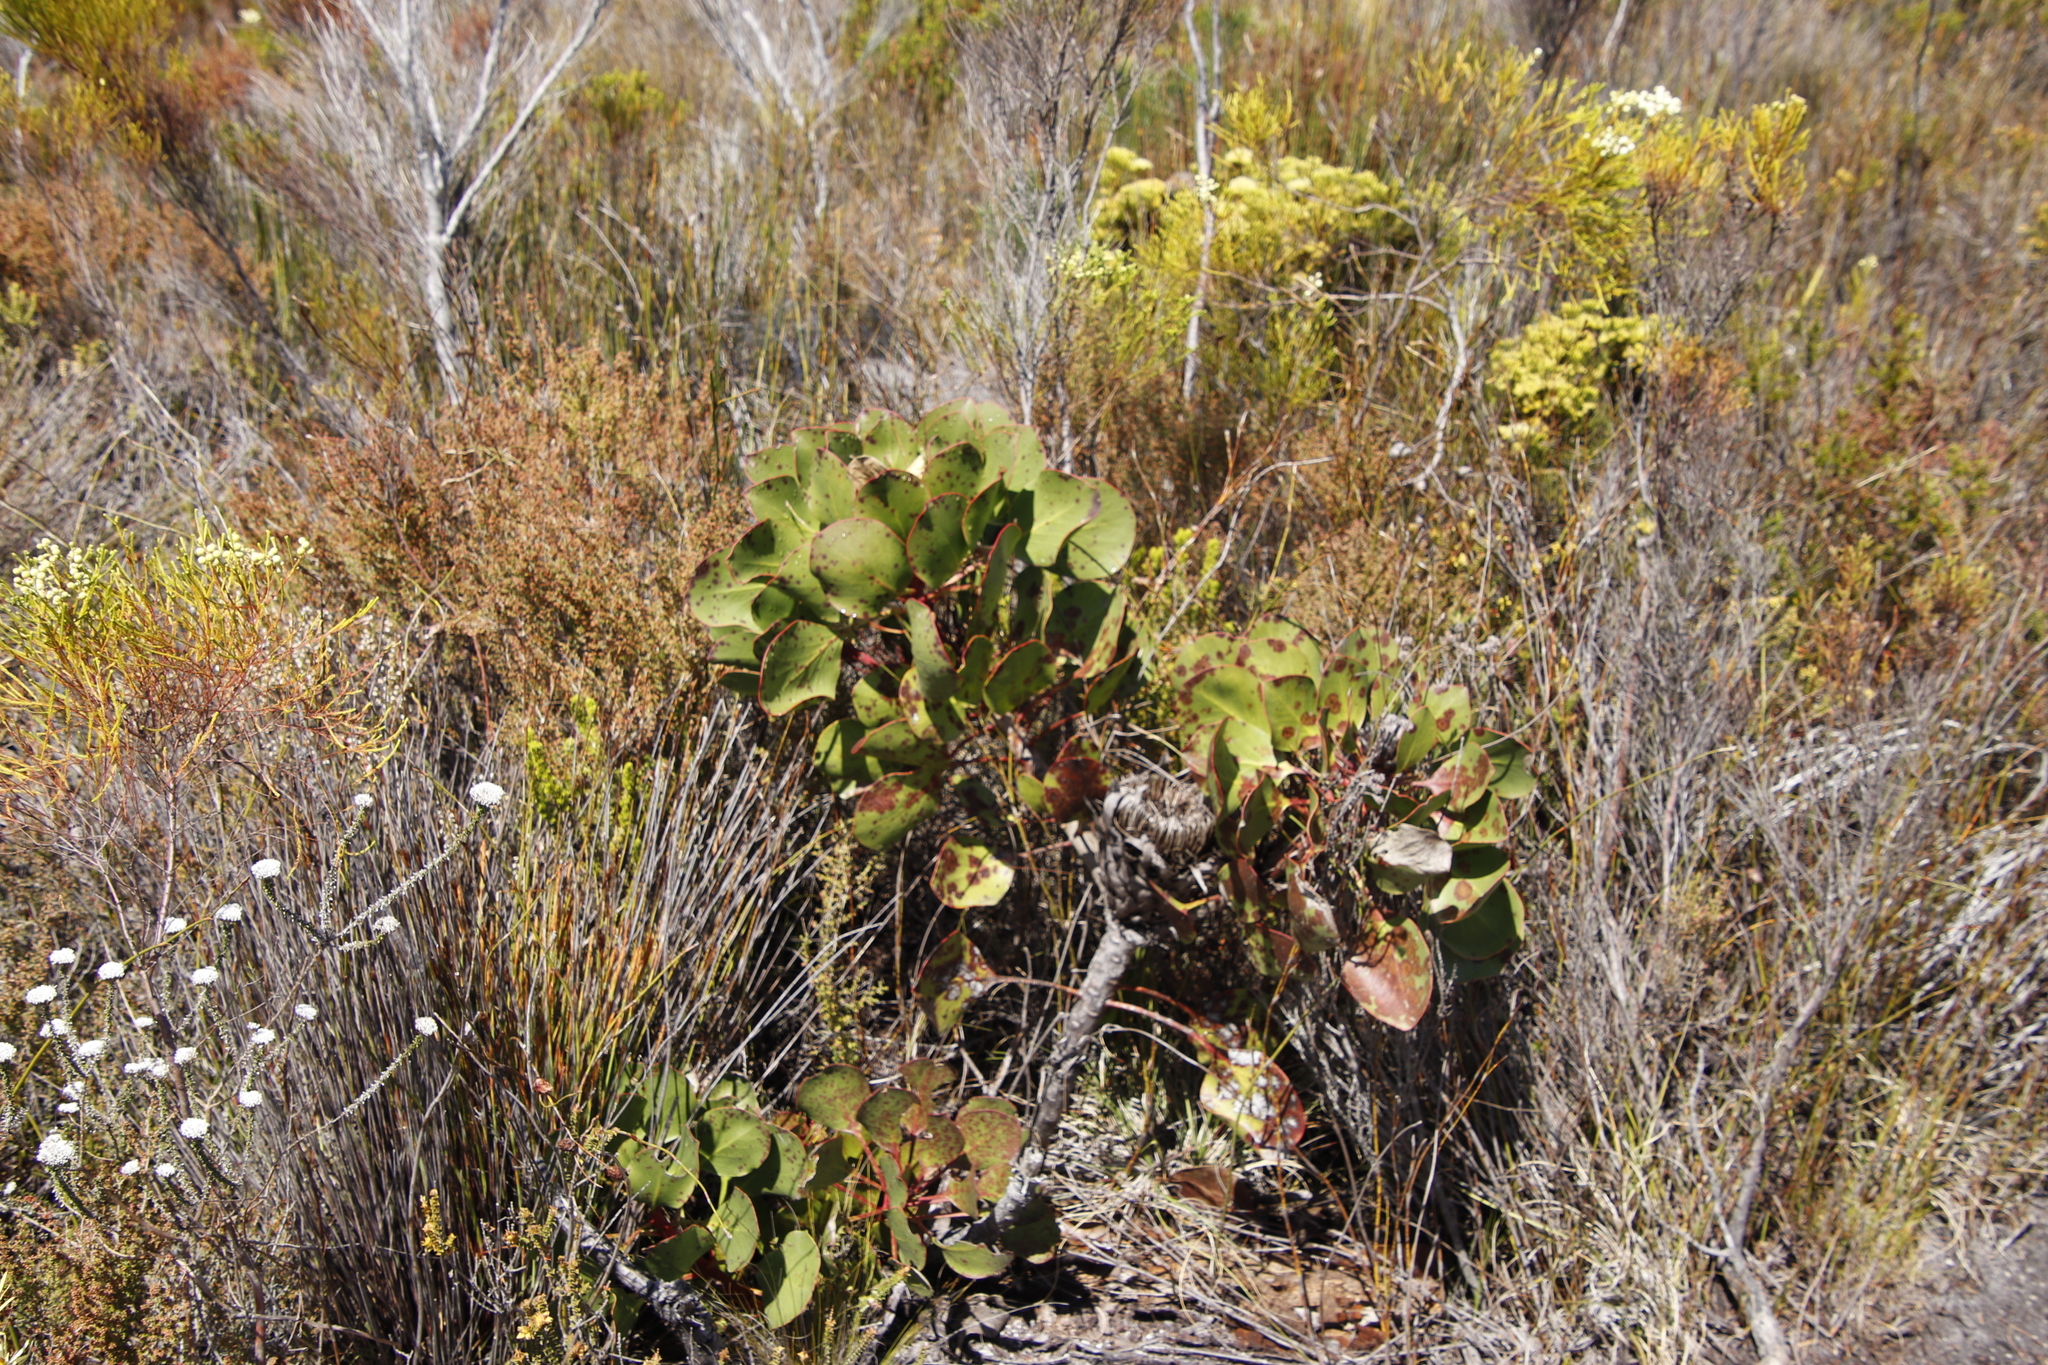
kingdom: Plantae
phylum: Tracheophyta
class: Magnoliopsida
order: Proteales
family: Proteaceae
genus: Protea
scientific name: Protea cynaroides
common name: King protea
